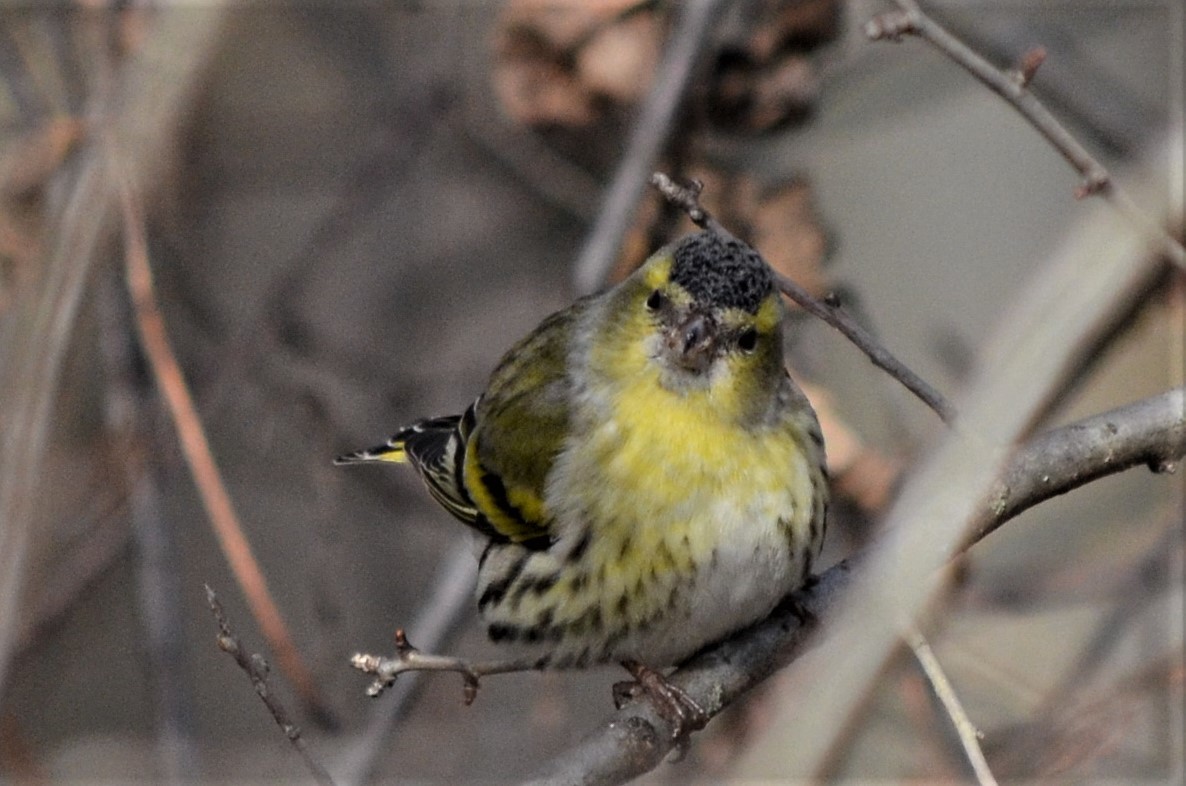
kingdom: Animalia
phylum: Chordata
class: Aves
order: Passeriformes
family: Fringillidae
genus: Spinus
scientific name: Spinus spinus
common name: Eurasian siskin
